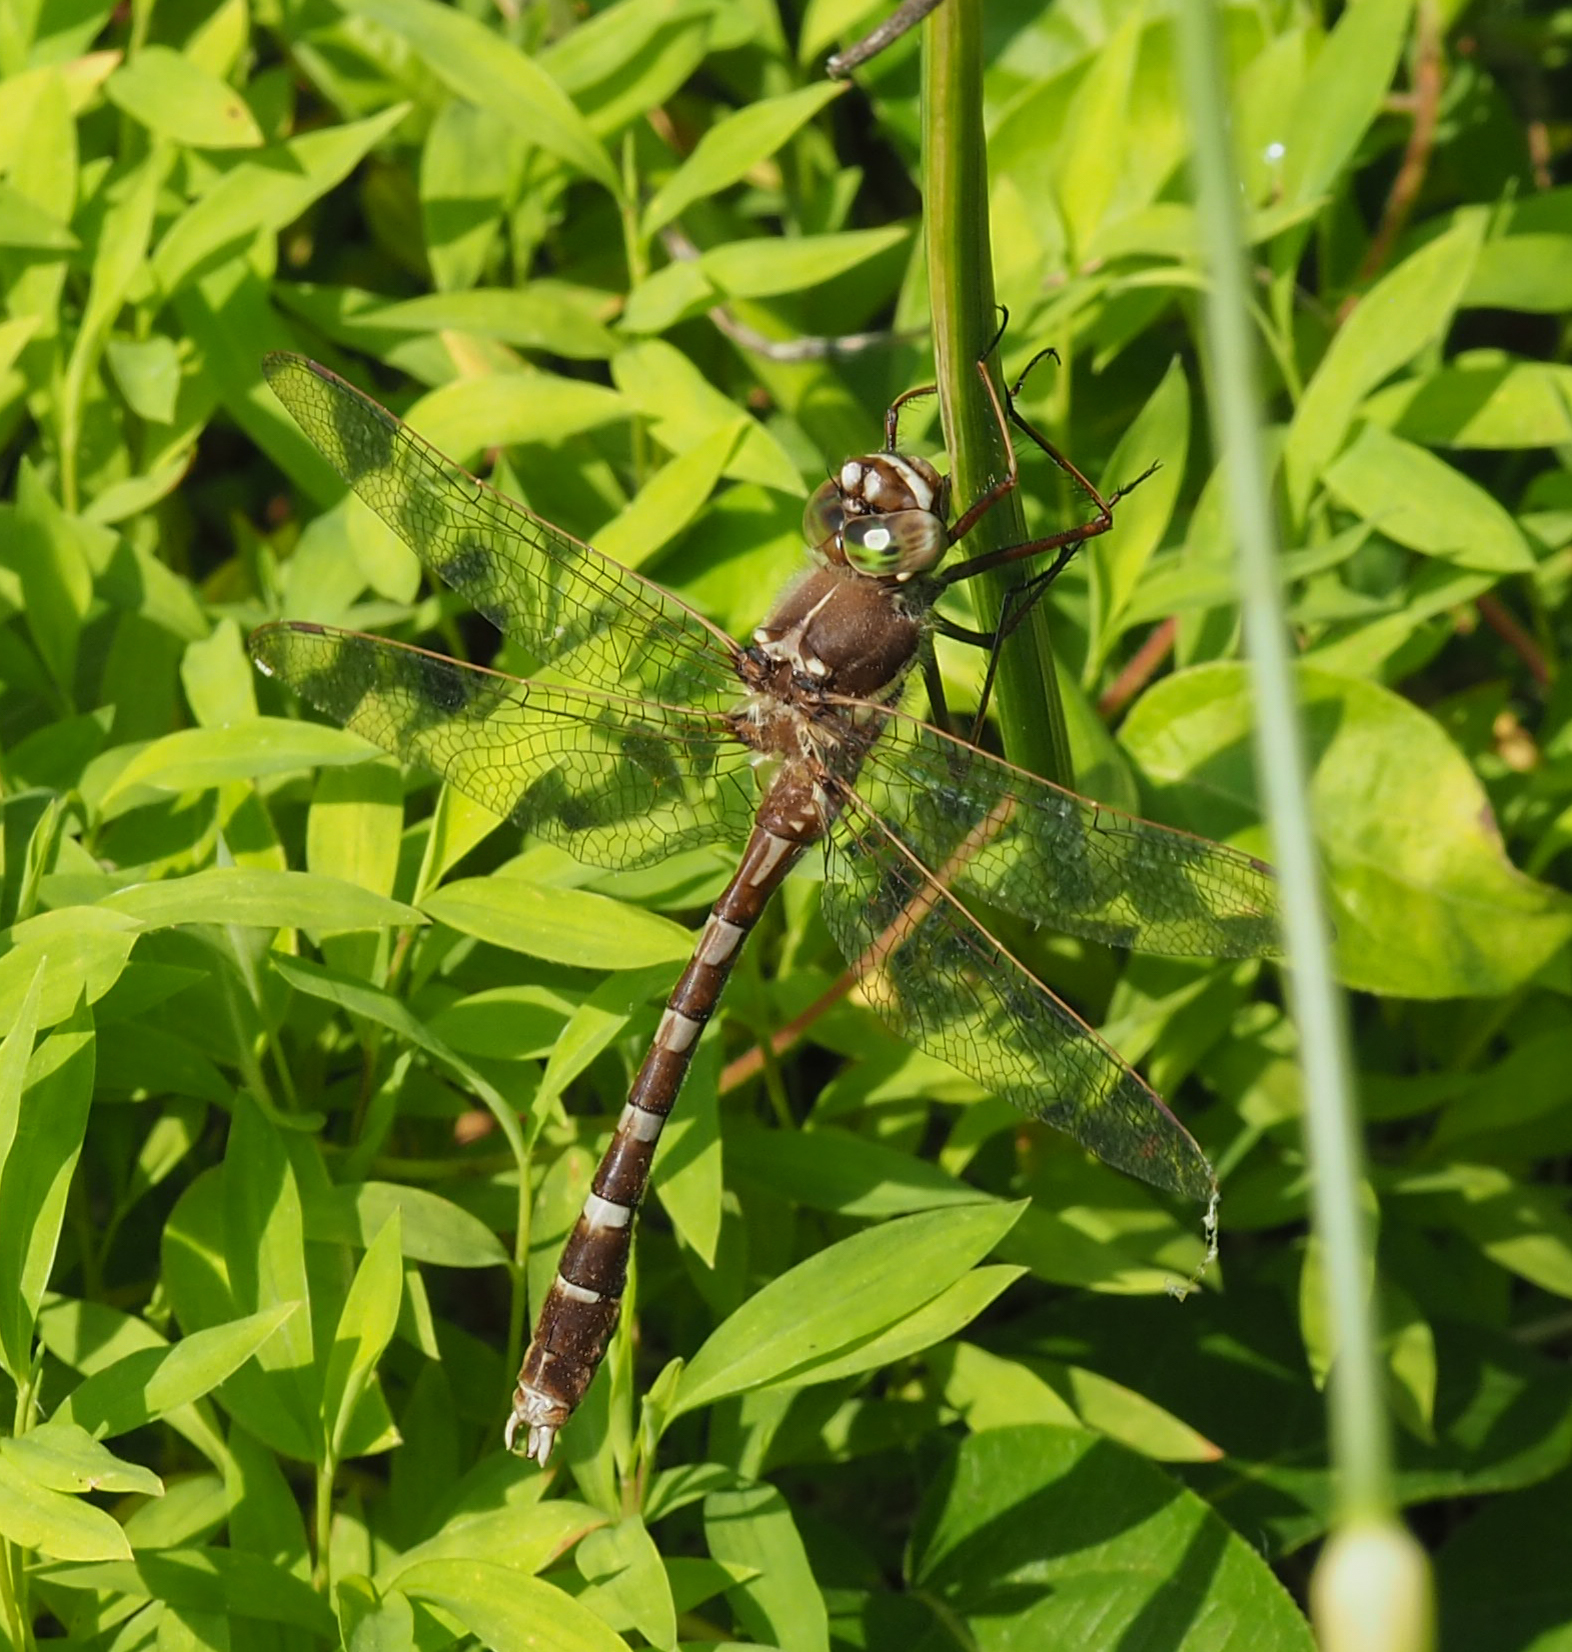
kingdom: Animalia
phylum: Arthropoda
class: Insecta
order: Odonata
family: Macromiidae
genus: Didymops
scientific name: Didymops transversa
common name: Stream cruiser
